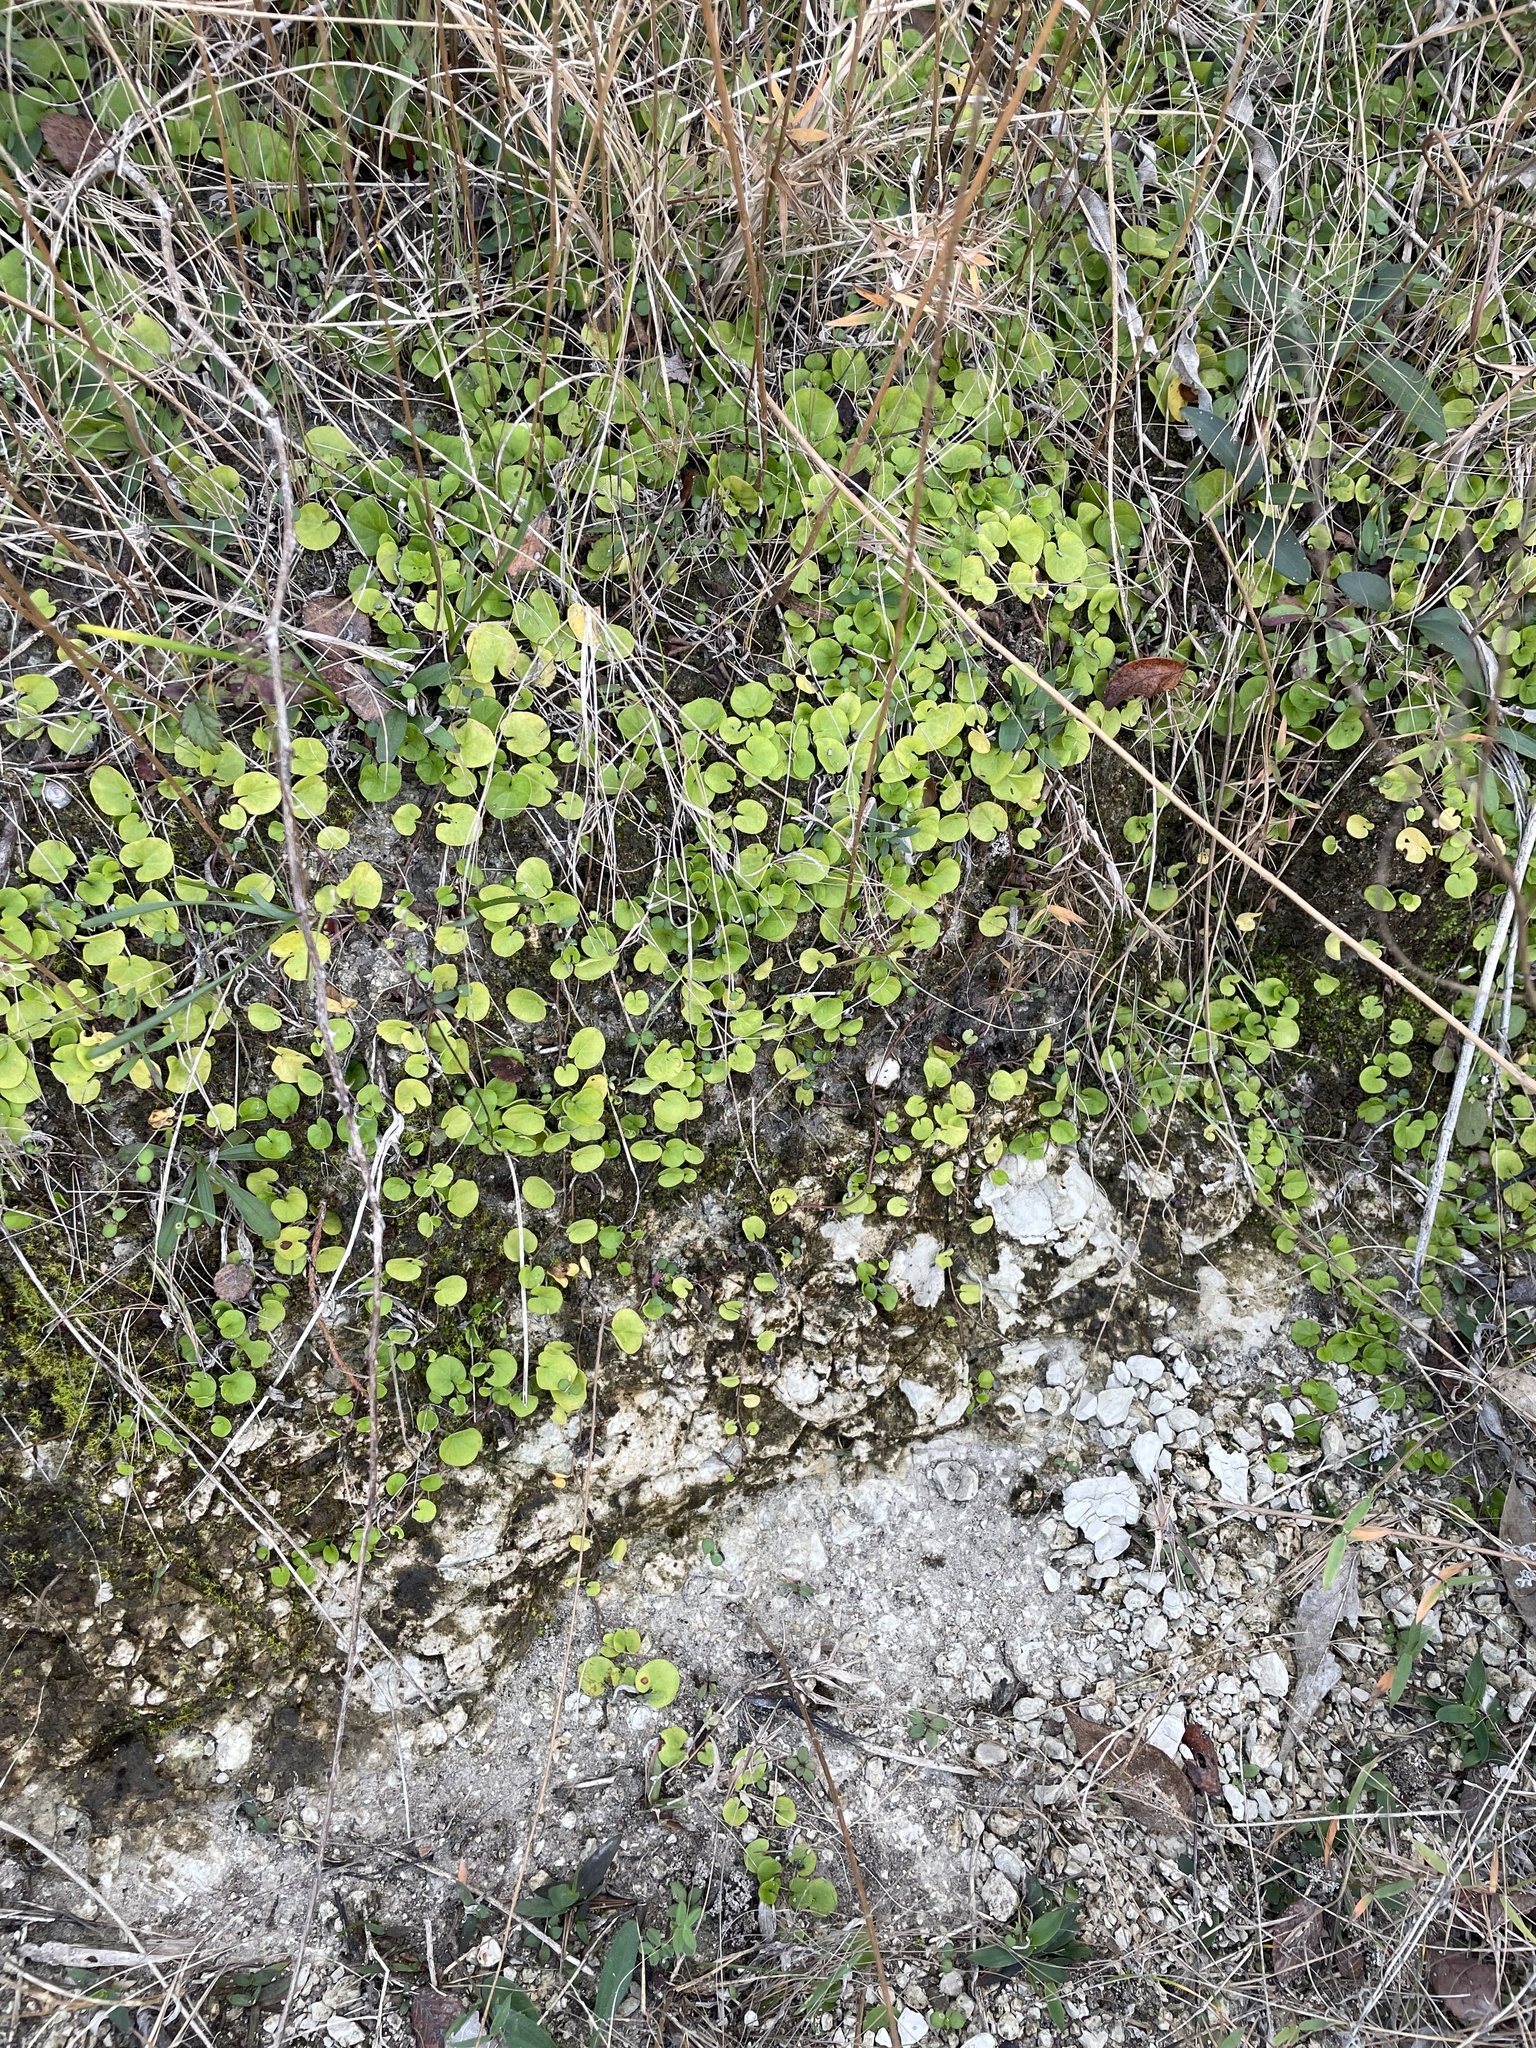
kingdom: Plantae
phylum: Tracheophyta
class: Magnoliopsida
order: Solanales
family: Convolvulaceae
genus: Dichondra
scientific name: Dichondra carolinensis
